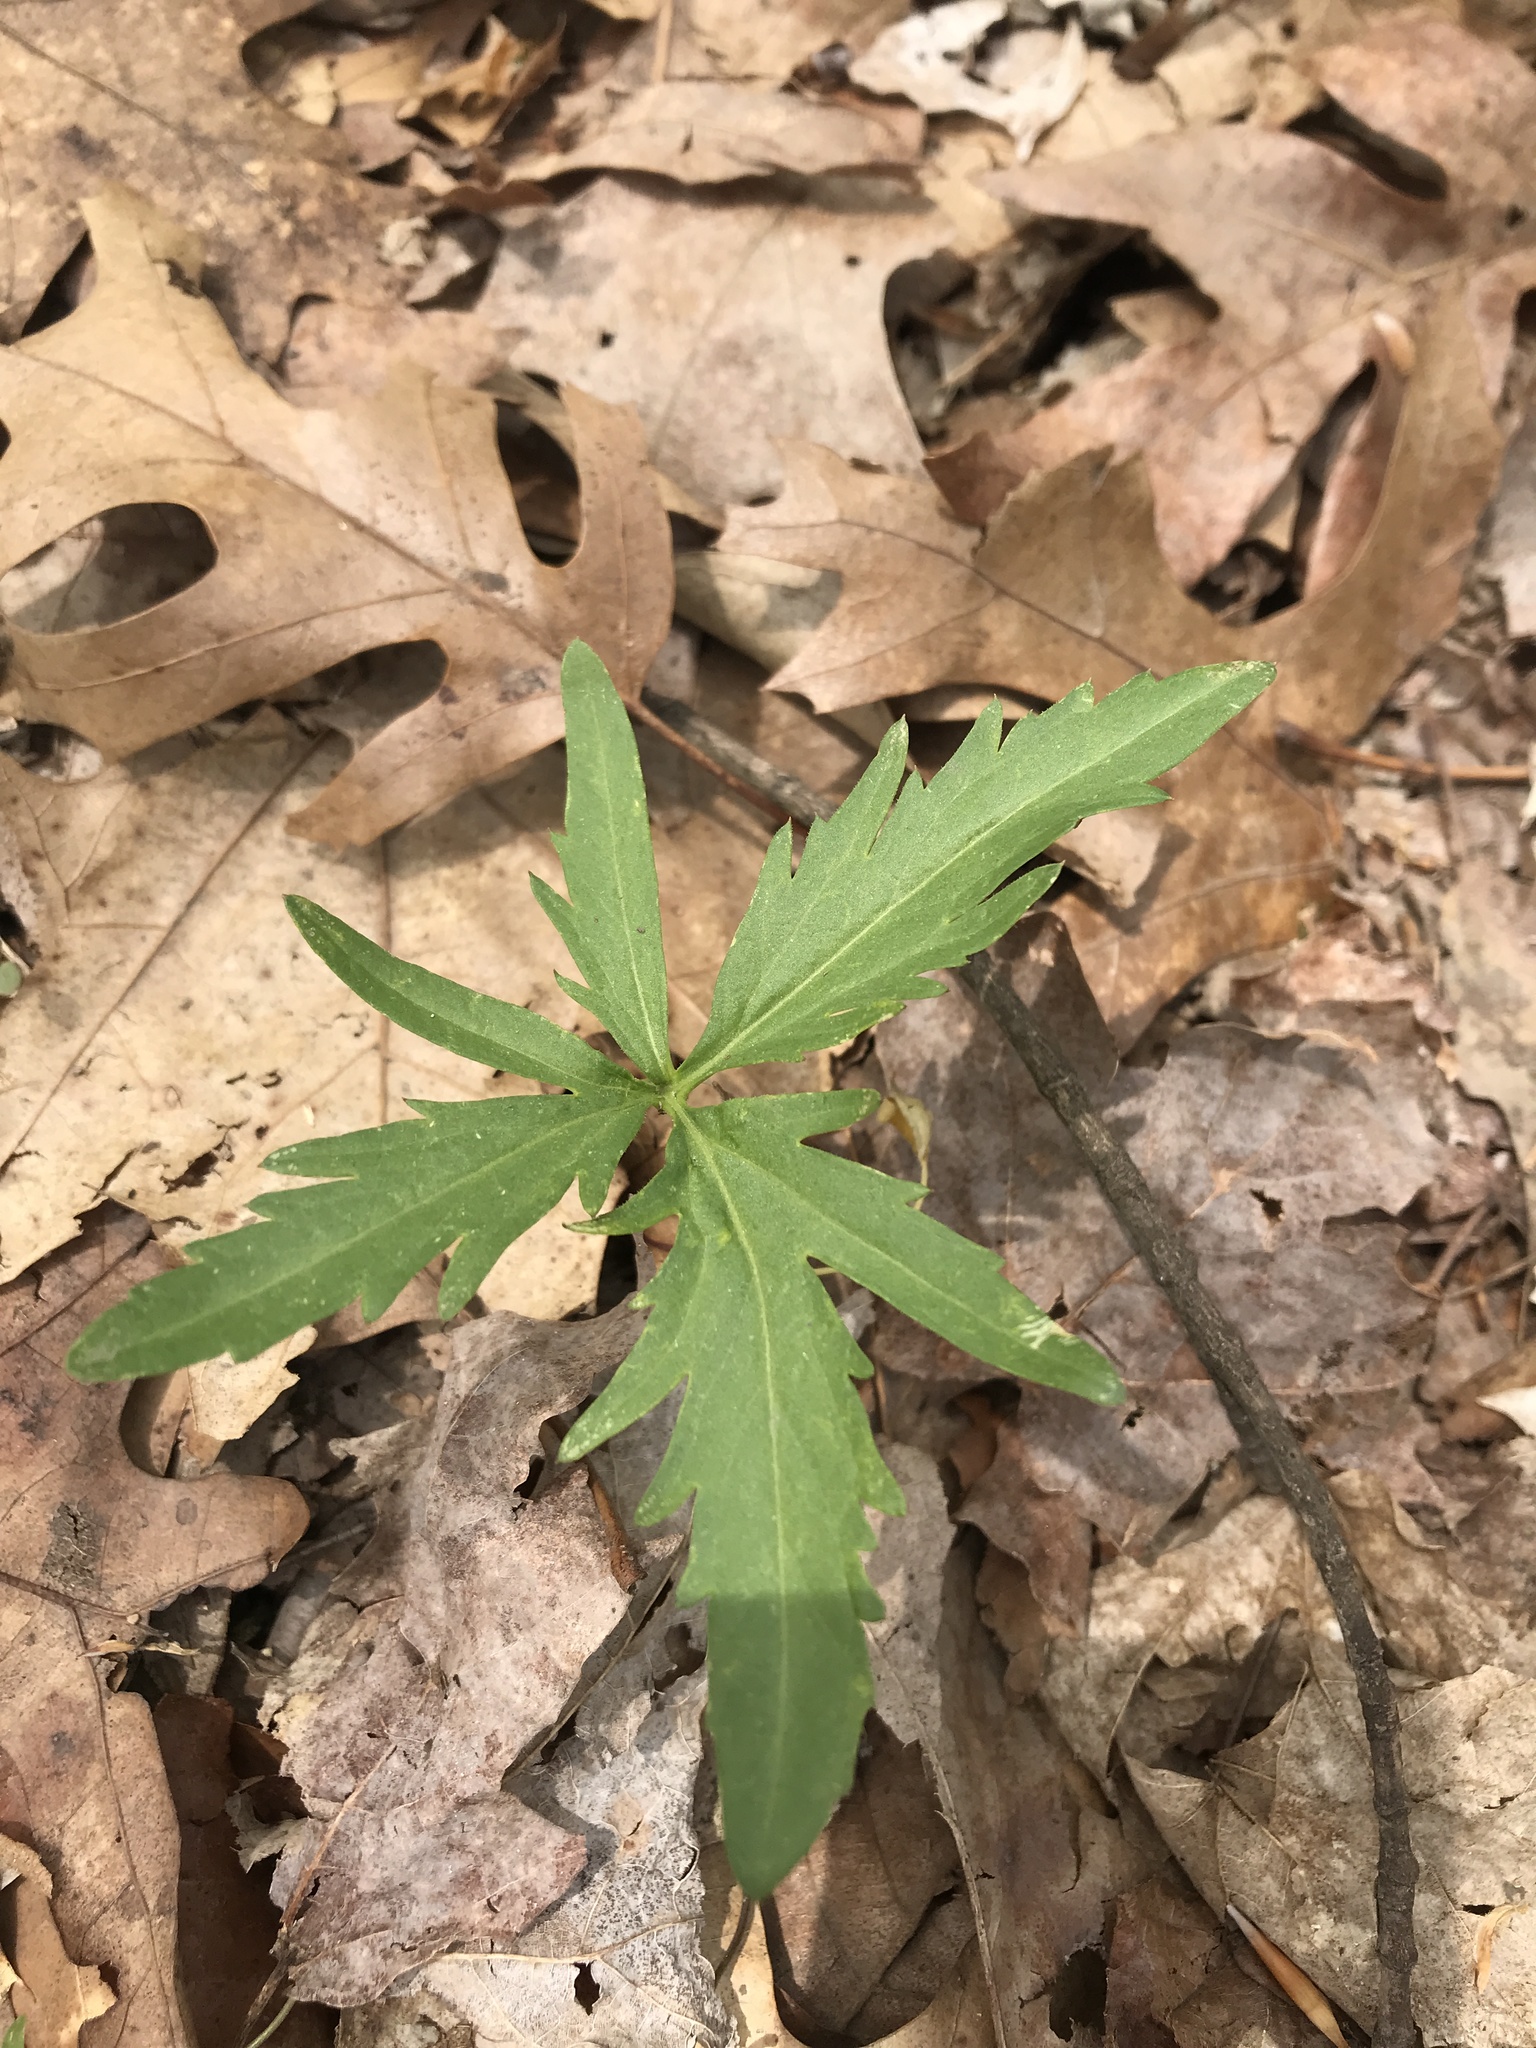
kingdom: Plantae
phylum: Tracheophyta
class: Magnoliopsida
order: Brassicales
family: Brassicaceae
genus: Cardamine
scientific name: Cardamine concatenata
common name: Cut-leaf toothcup
